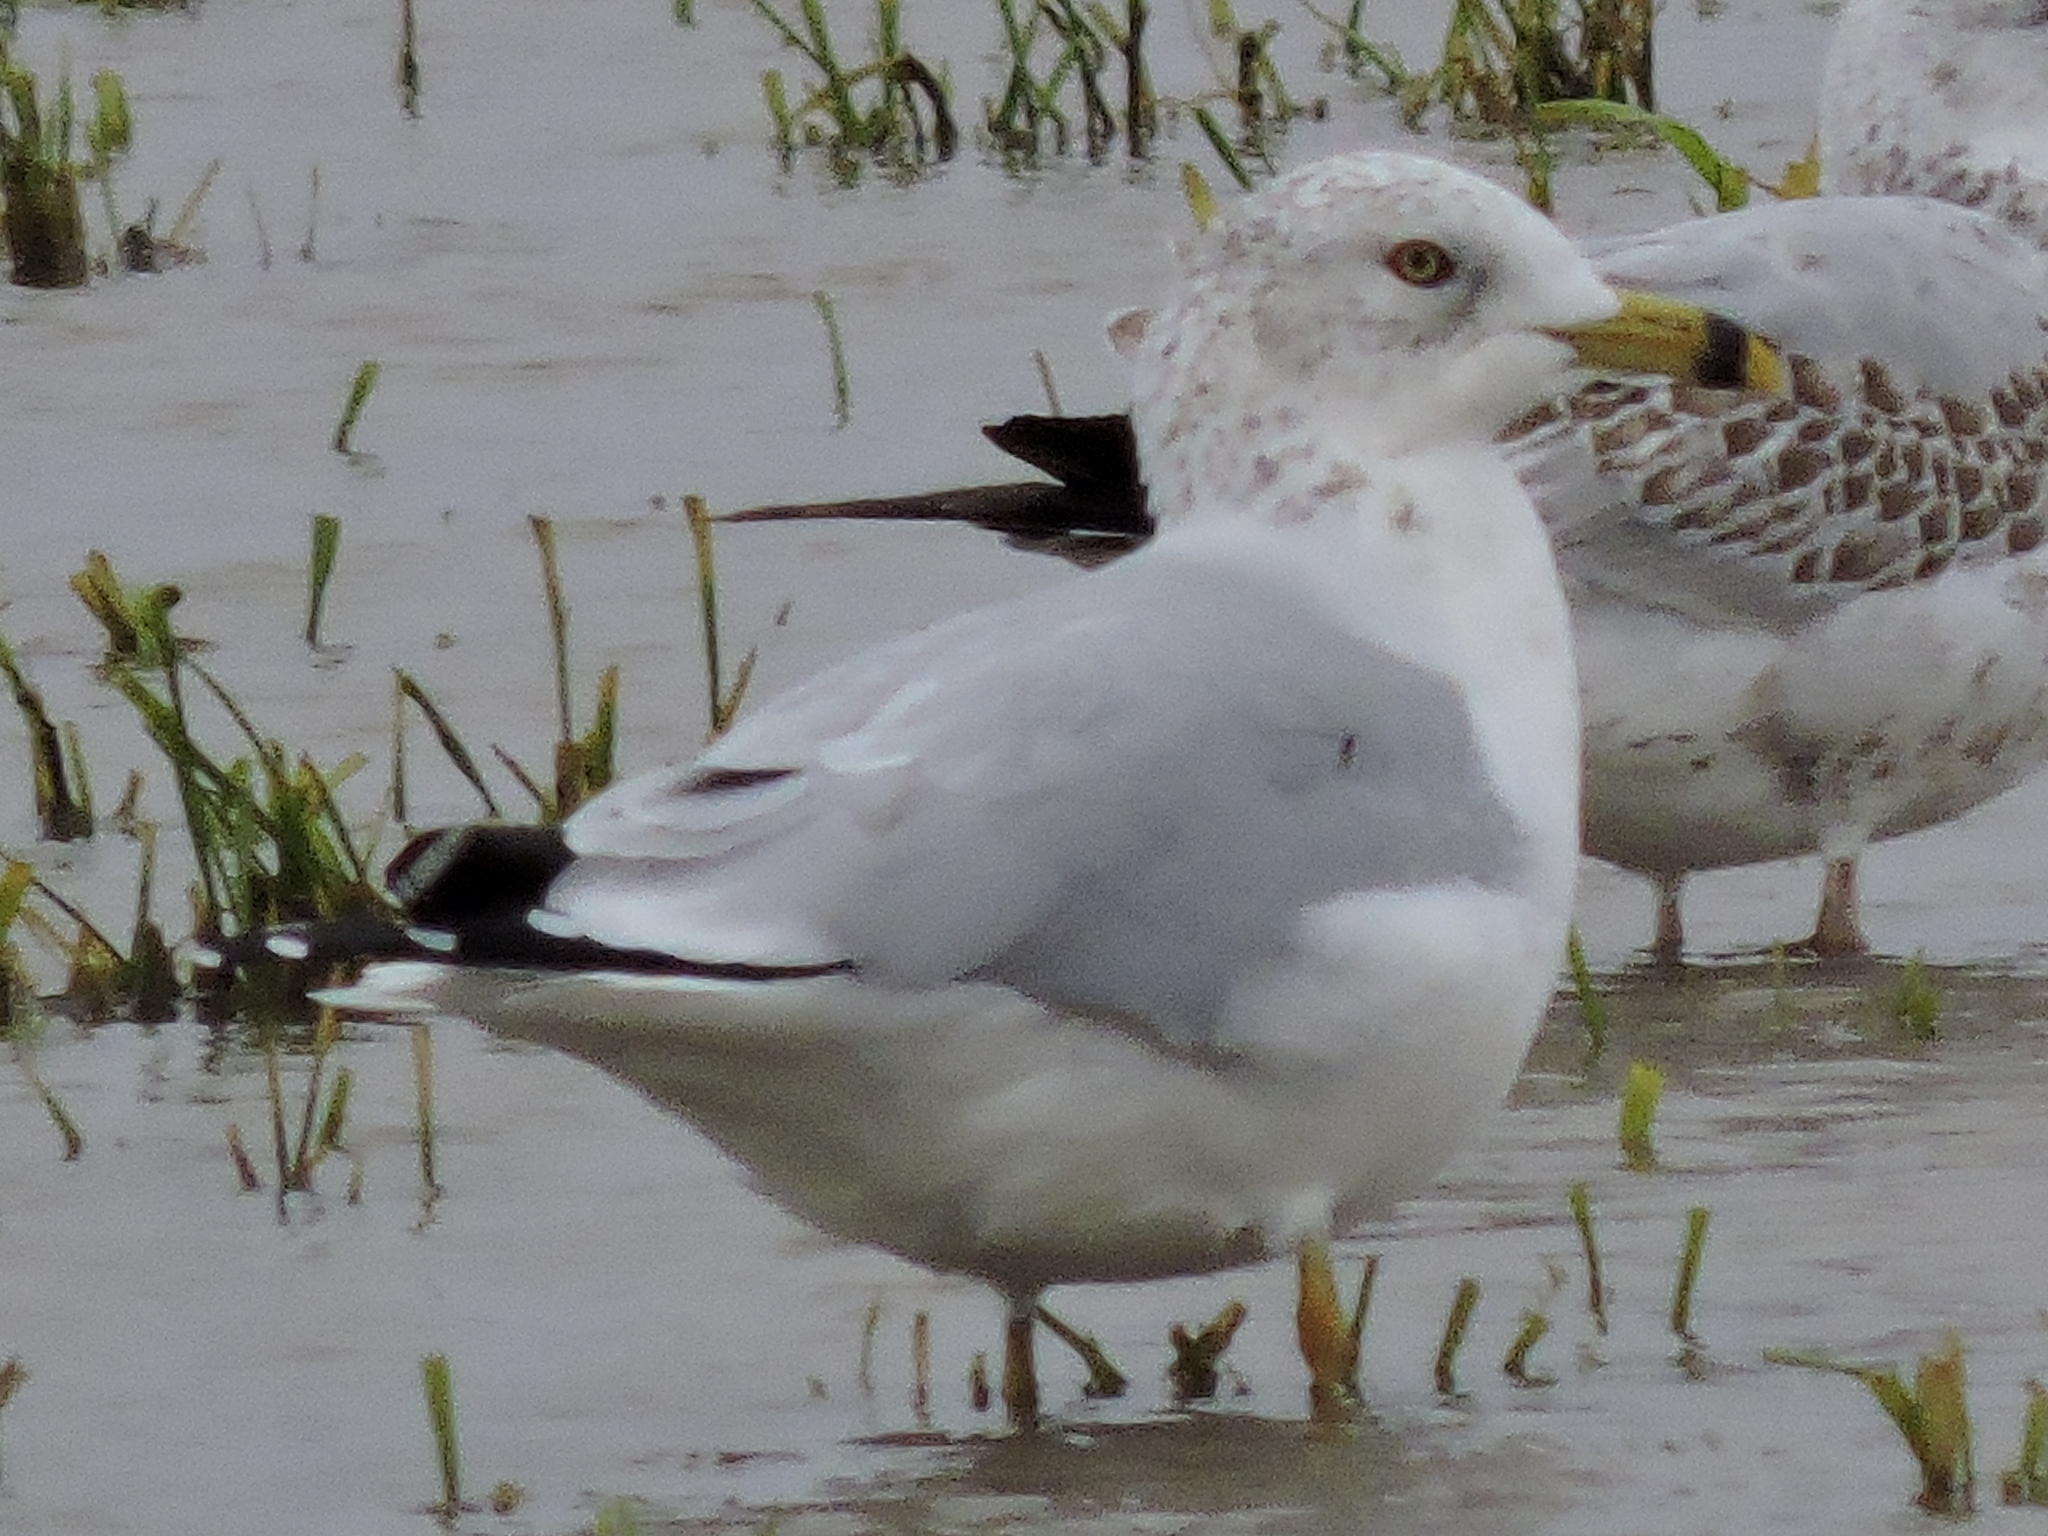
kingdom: Animalia
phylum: Chordata
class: Aves
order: Charadriiformes
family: Laridae
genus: Larus
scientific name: Larus delawarensis
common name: Ring-billed gull
